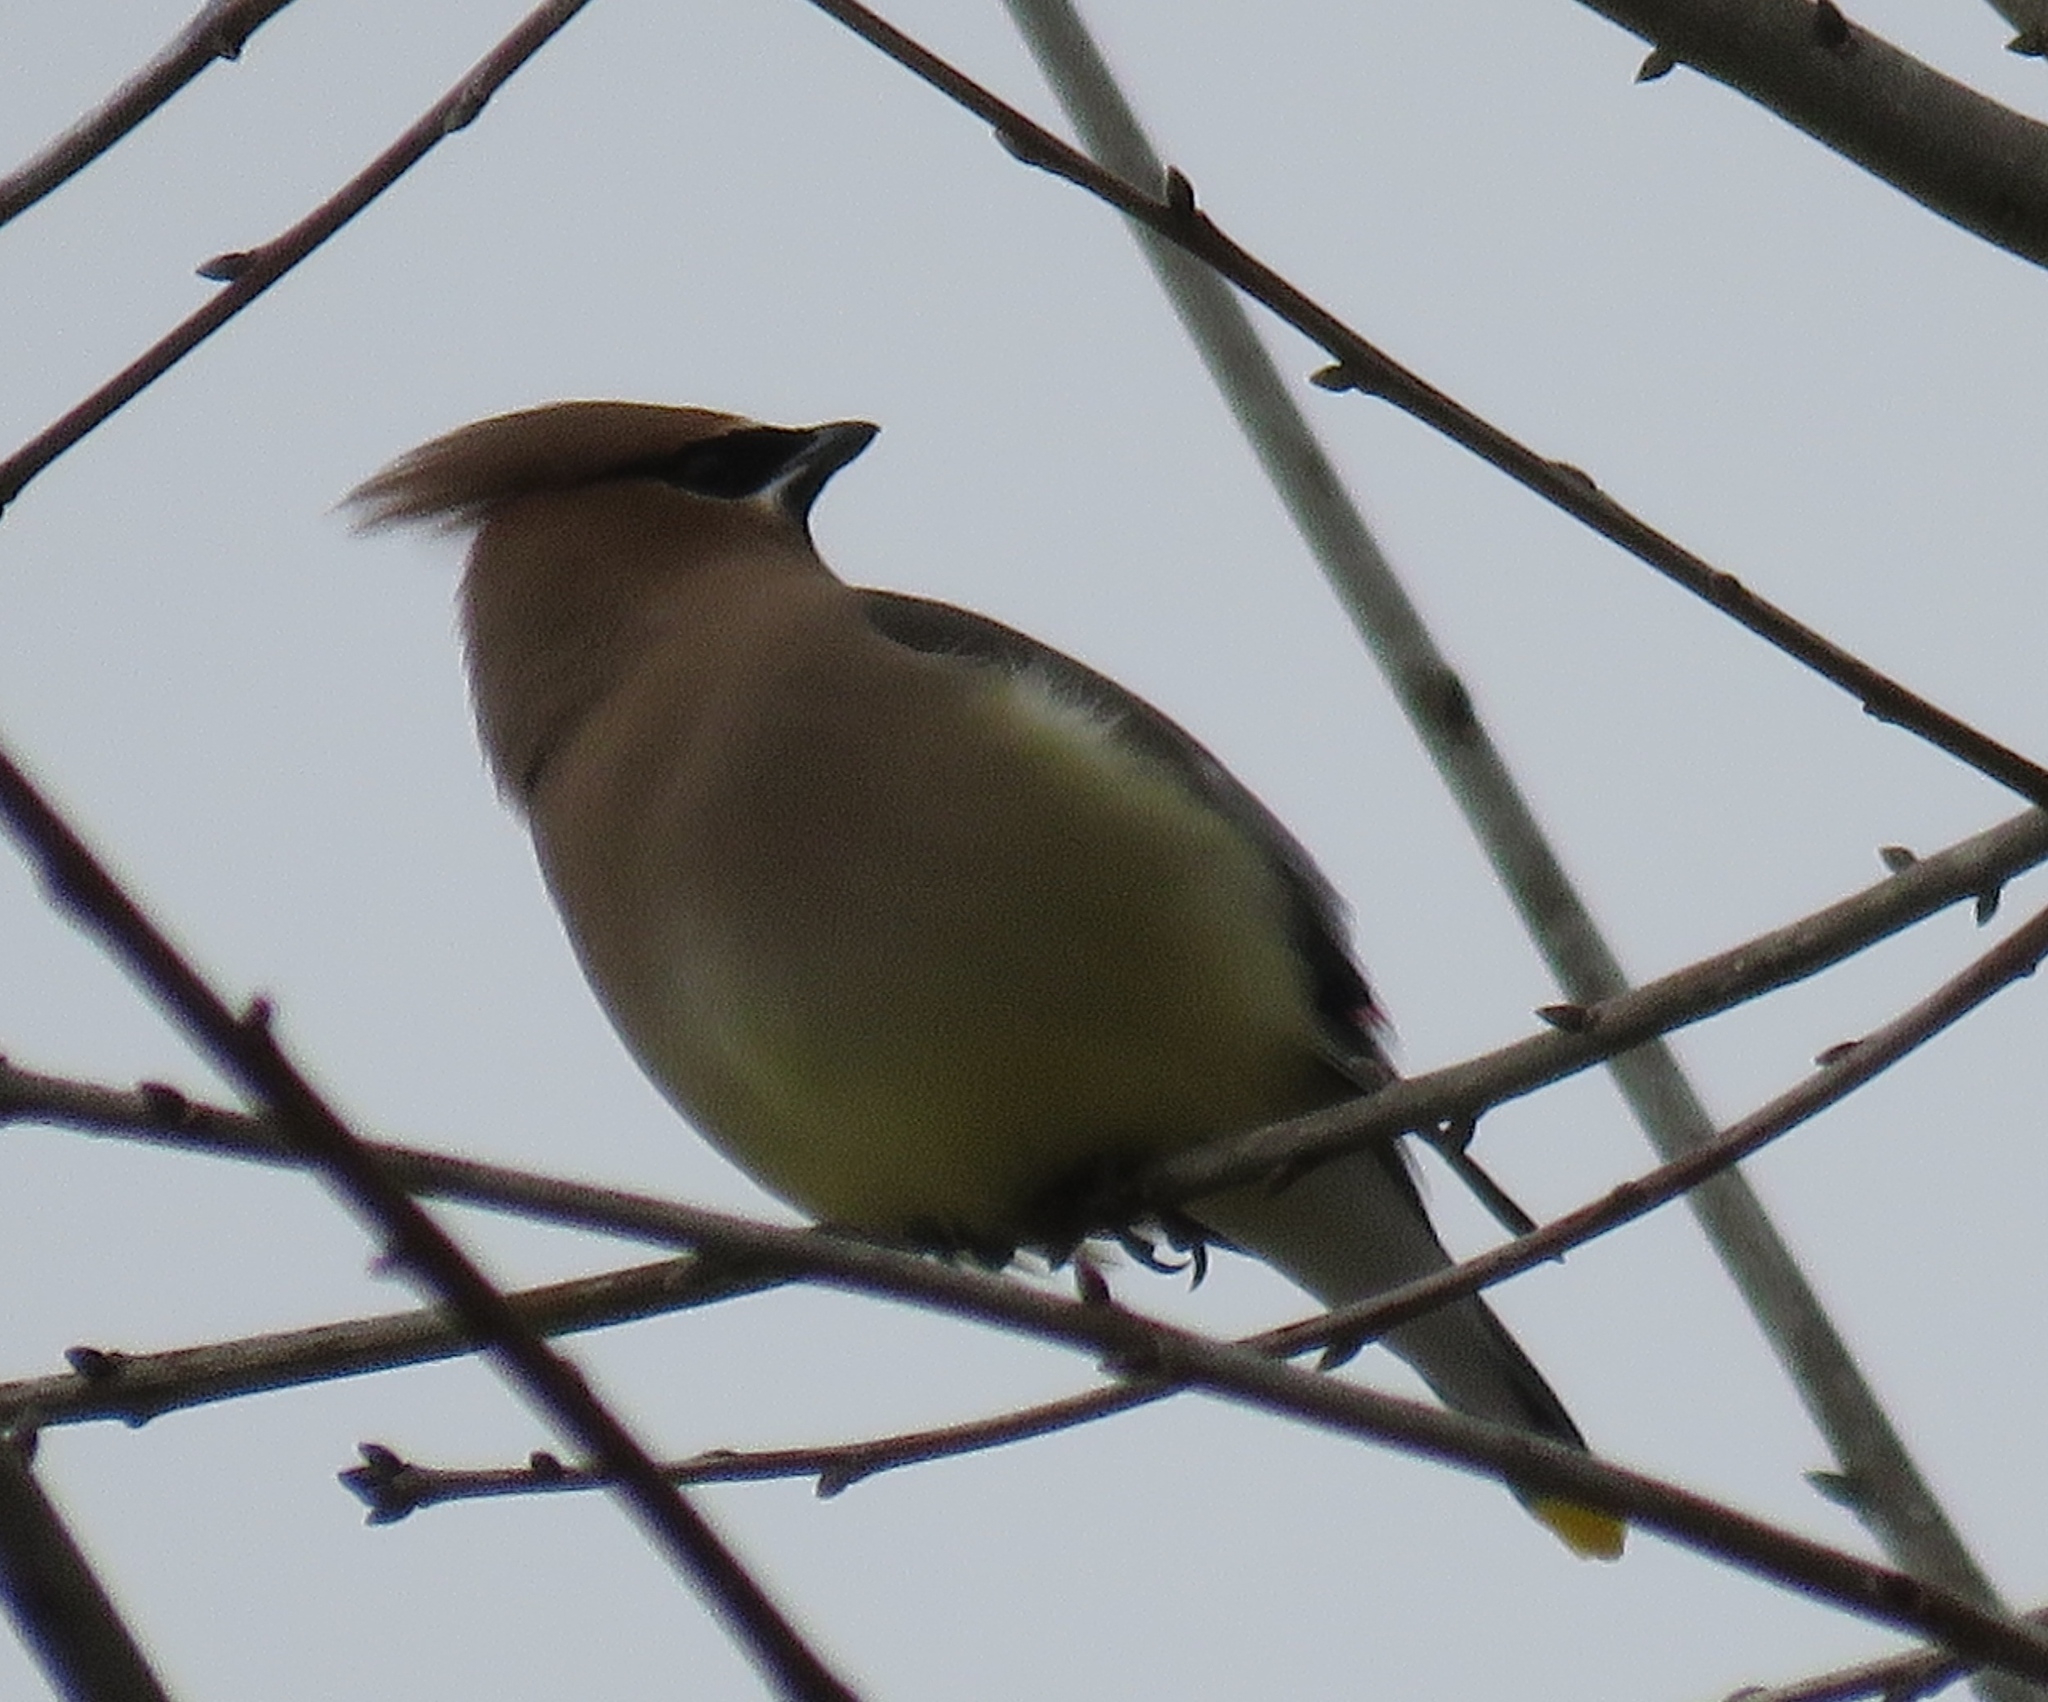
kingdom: Animalia
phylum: Chordata
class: Aves
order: Passeriformes
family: Bombycillidae
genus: Bombycilla
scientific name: Bombycilla cedrorum
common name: Cedar waxwing
